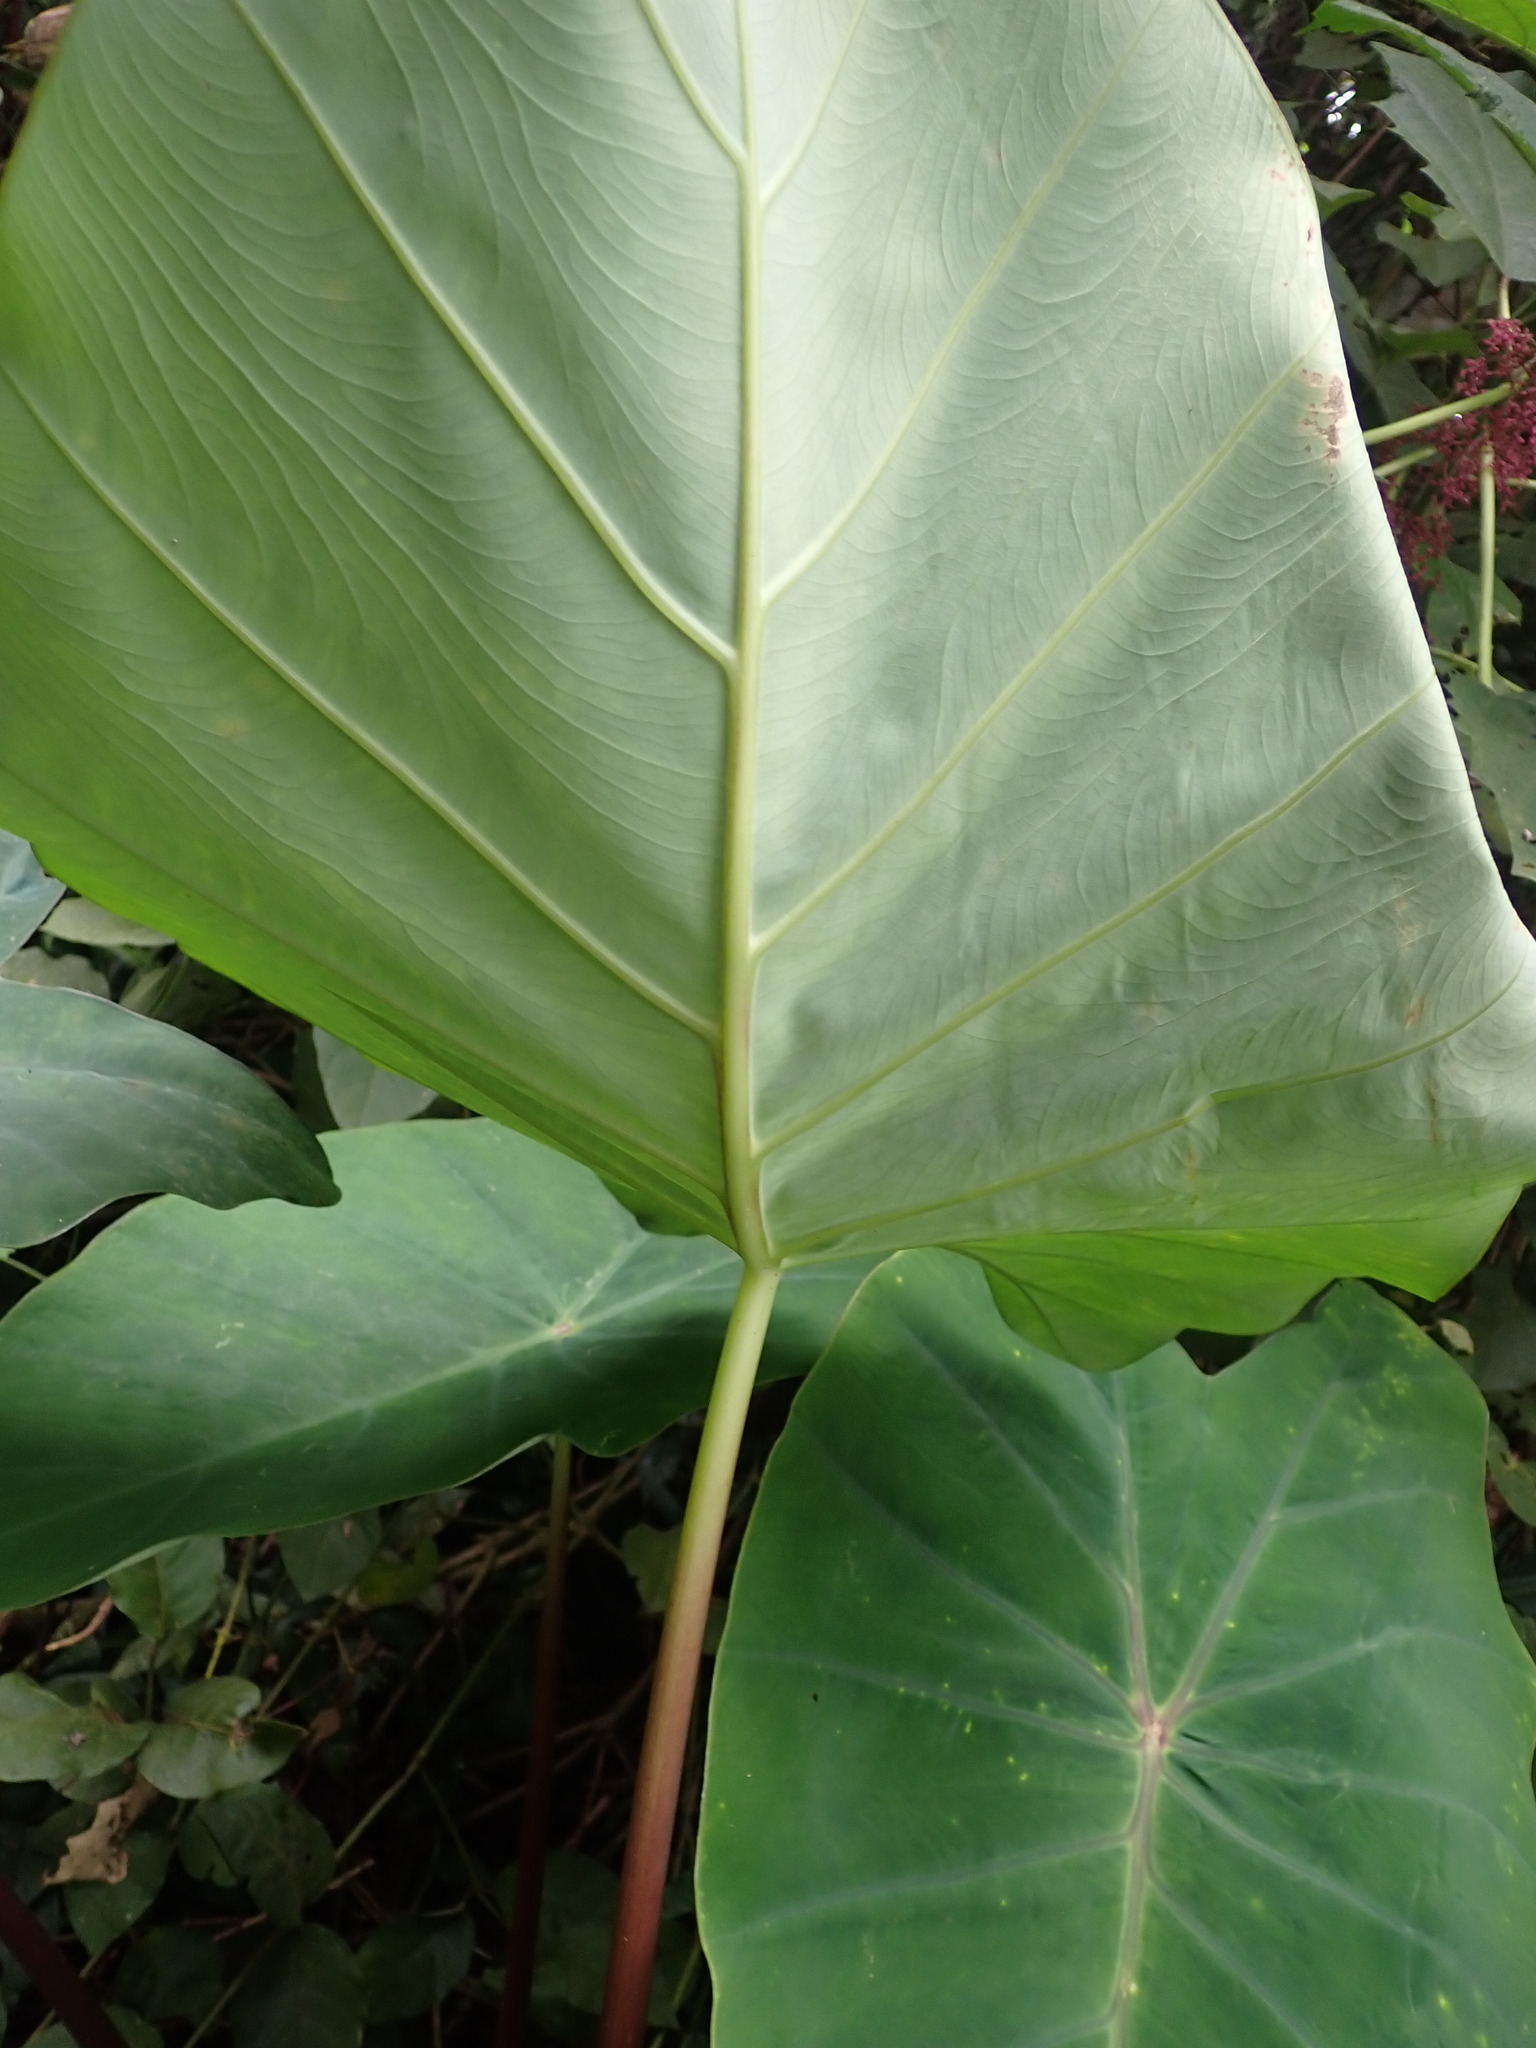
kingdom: Plantae
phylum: Tracheophyta
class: Liliopsida
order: Alismatales
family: Araceae
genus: Colocasia
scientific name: Colocasia esculenta
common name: Taro
